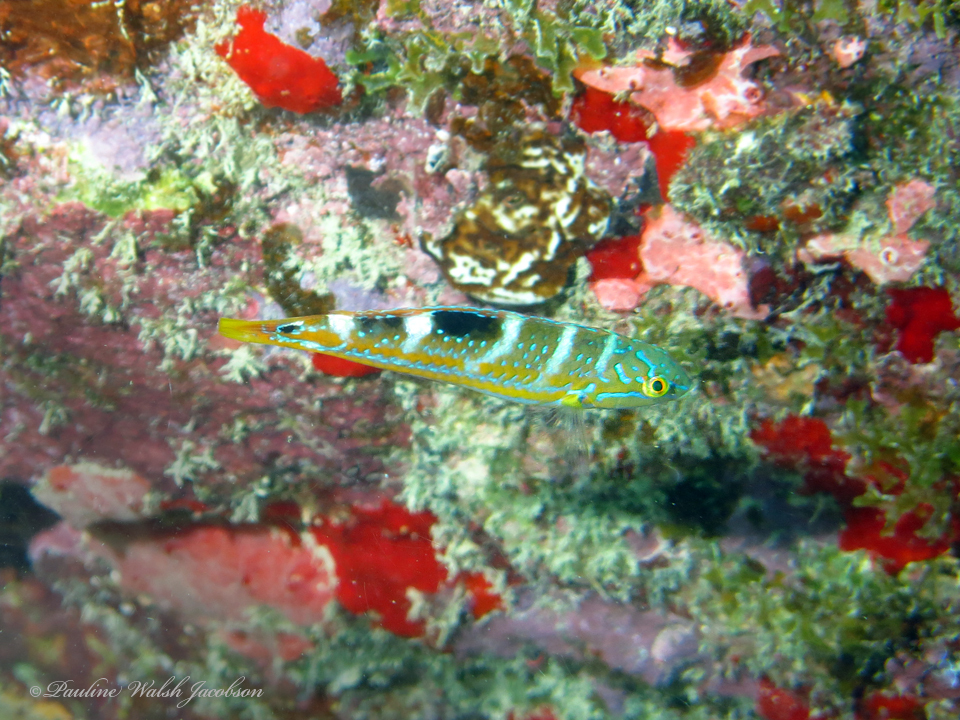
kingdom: Animalia
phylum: Chordata
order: Perciformes
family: Labridae
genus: Halichoeres
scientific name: Halichoeres radiatus
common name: Puddingwife
